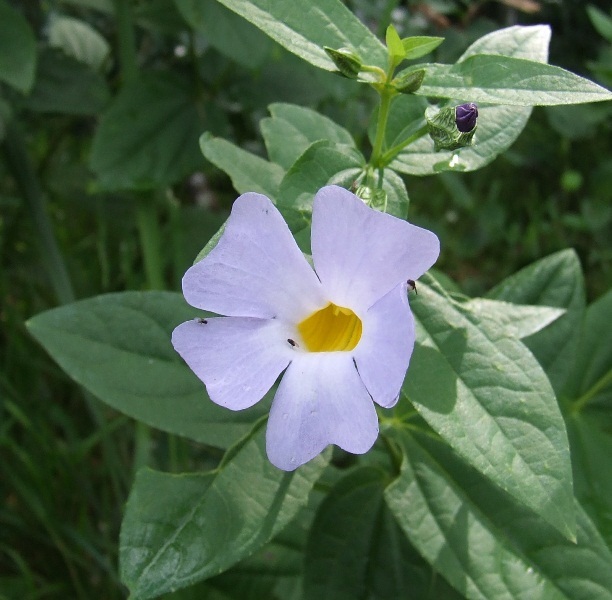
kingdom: Plantae
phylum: Tracheophyta
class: Magnoliopsida
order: Lamiales
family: Acanthaceae
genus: Thunbergia
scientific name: Thunbergia natalensis
